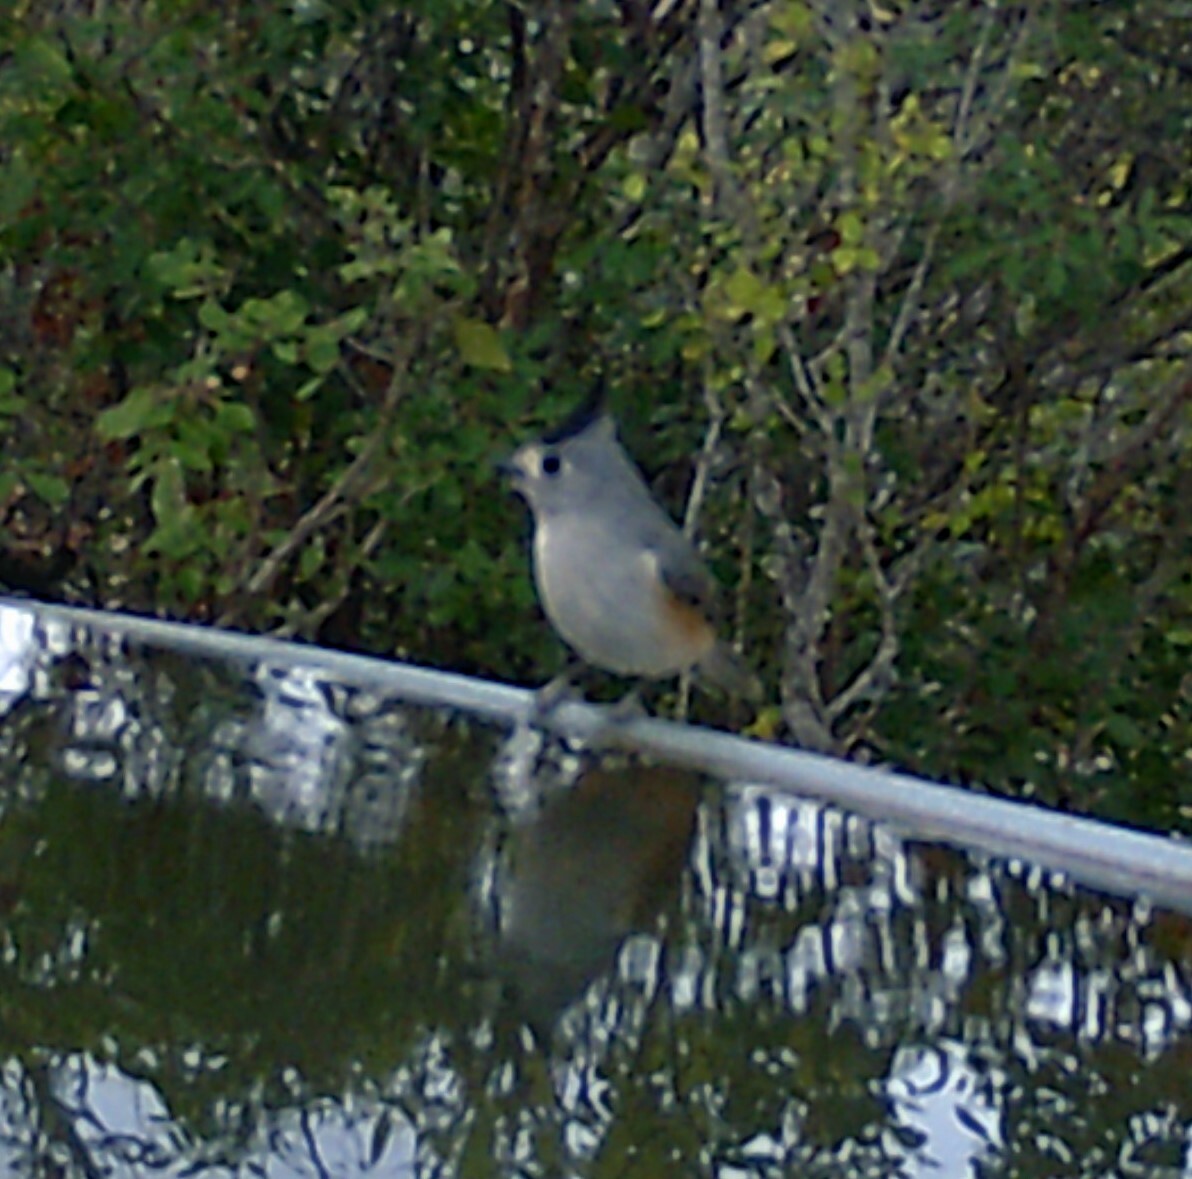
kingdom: Animalia
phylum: Chordata
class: Aves
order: Passeriformes
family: Paridae
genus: Baeolophus
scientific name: Baeolophus atricristatus
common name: Black-crested titmouse
